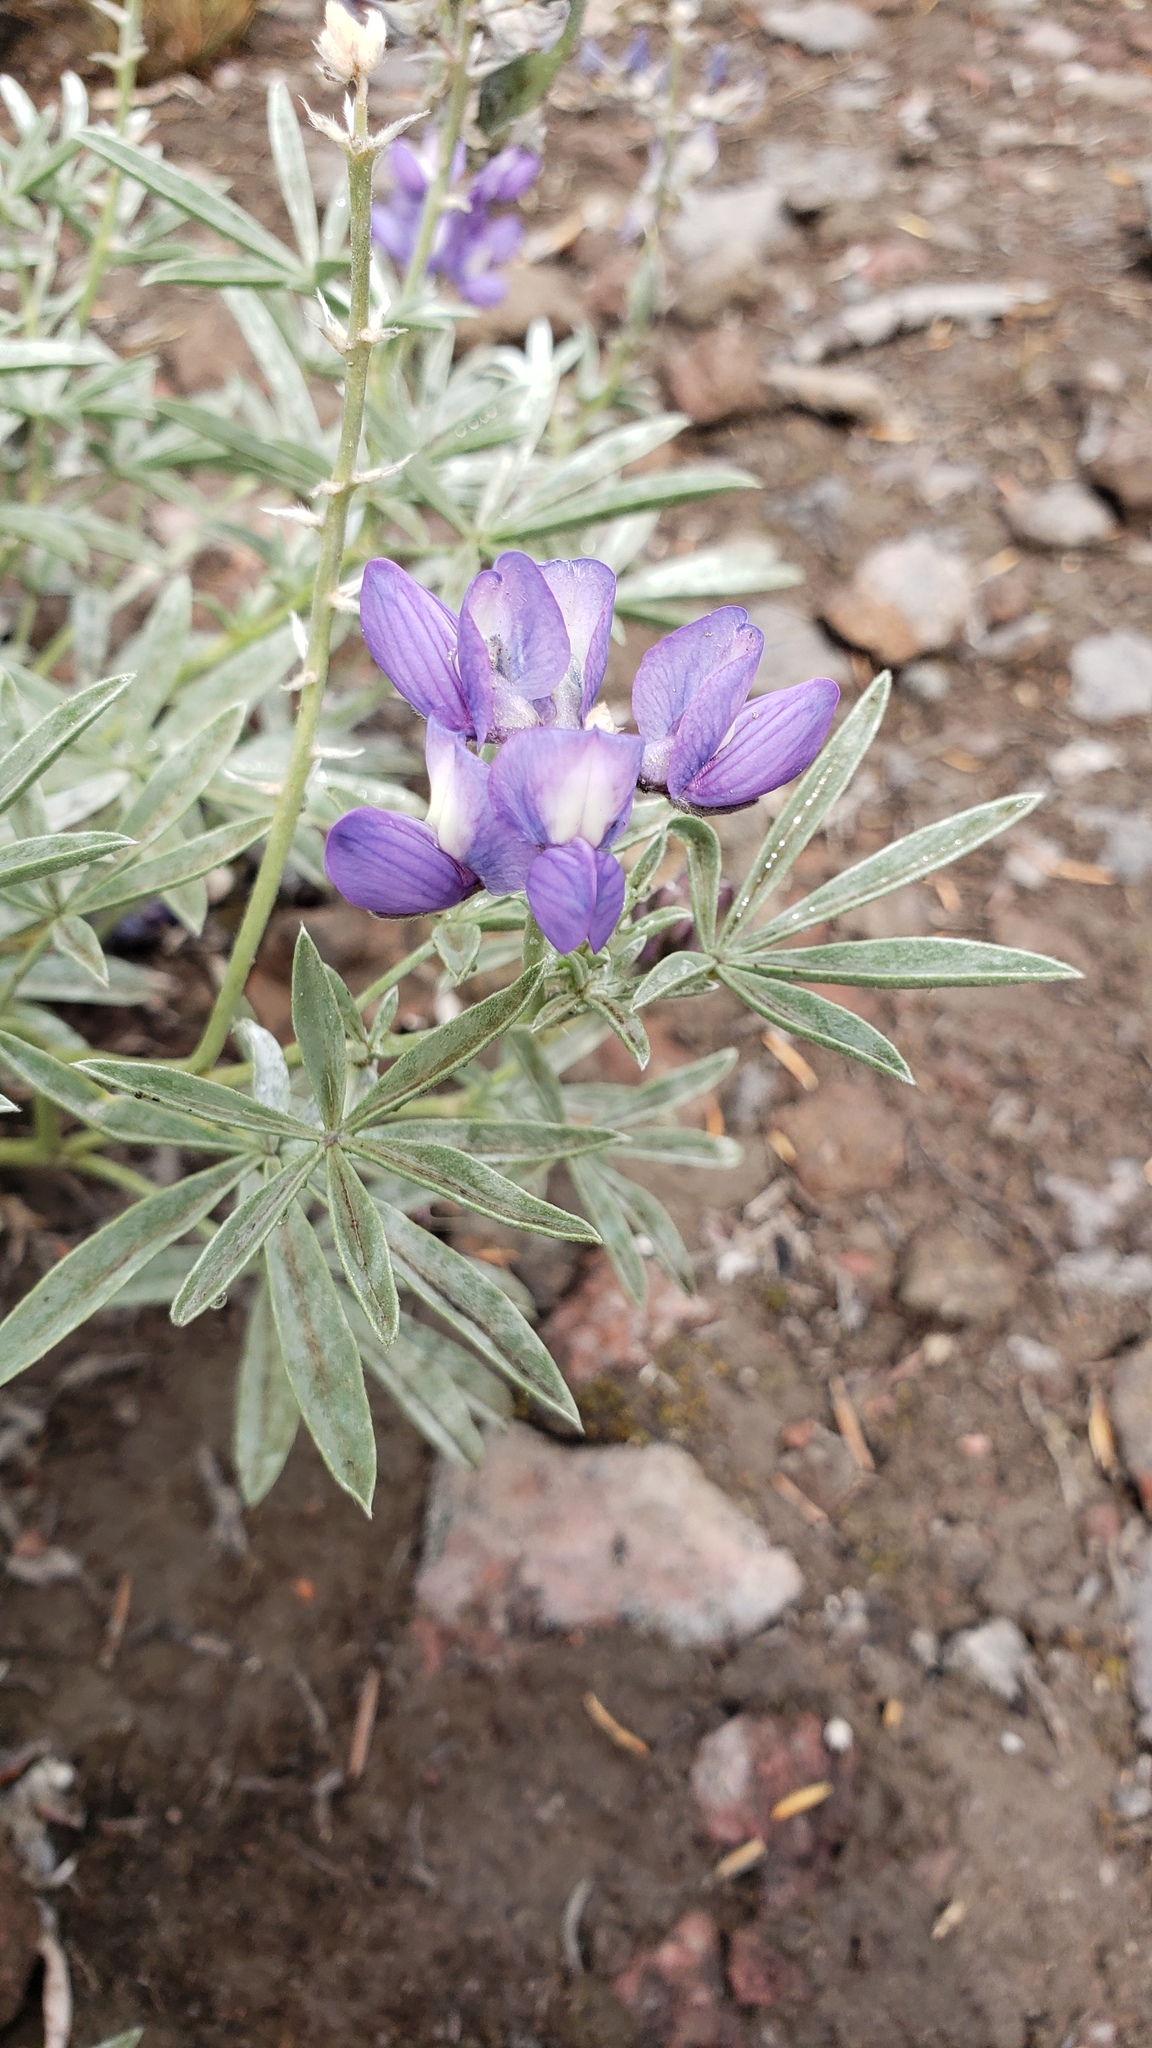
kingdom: Plantae
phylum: Tracheophyta
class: Magnoliopsida
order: Fabales
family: Fabaceae
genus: Lupinus
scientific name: Lupinus obtusilobus
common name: Blunt-lobe lupine
